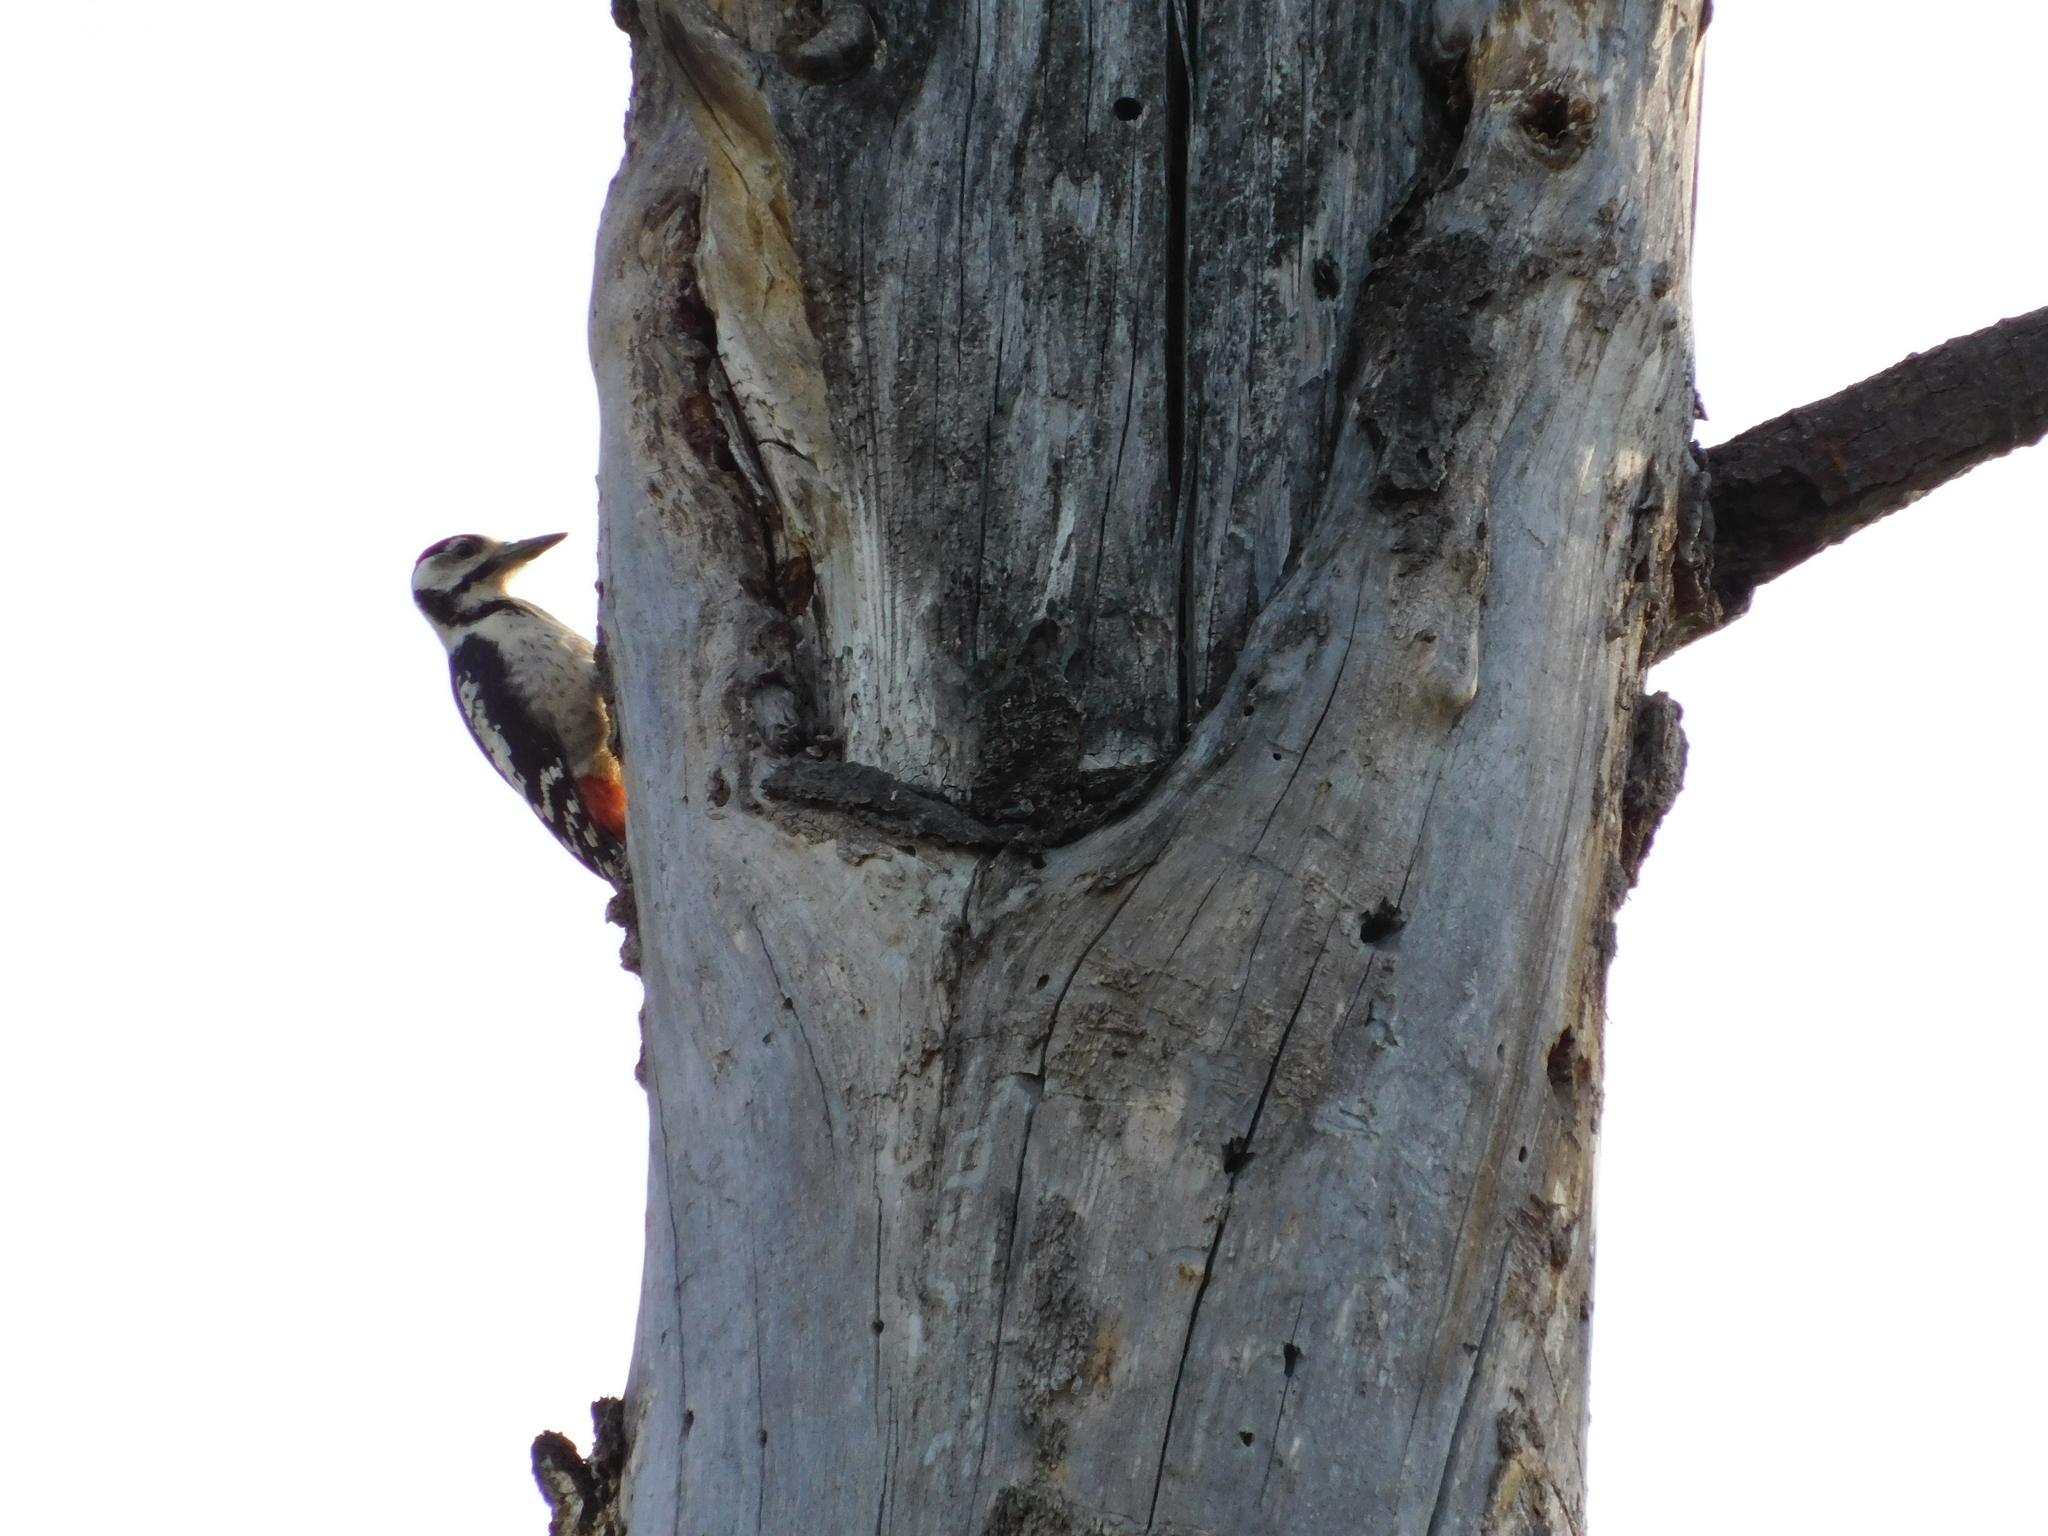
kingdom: Animalia
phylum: Chordata
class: Aves
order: Piciformes
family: Picidae
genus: Dendrocopos
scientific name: Dendrocopos major
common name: Great spotted woodpecker
